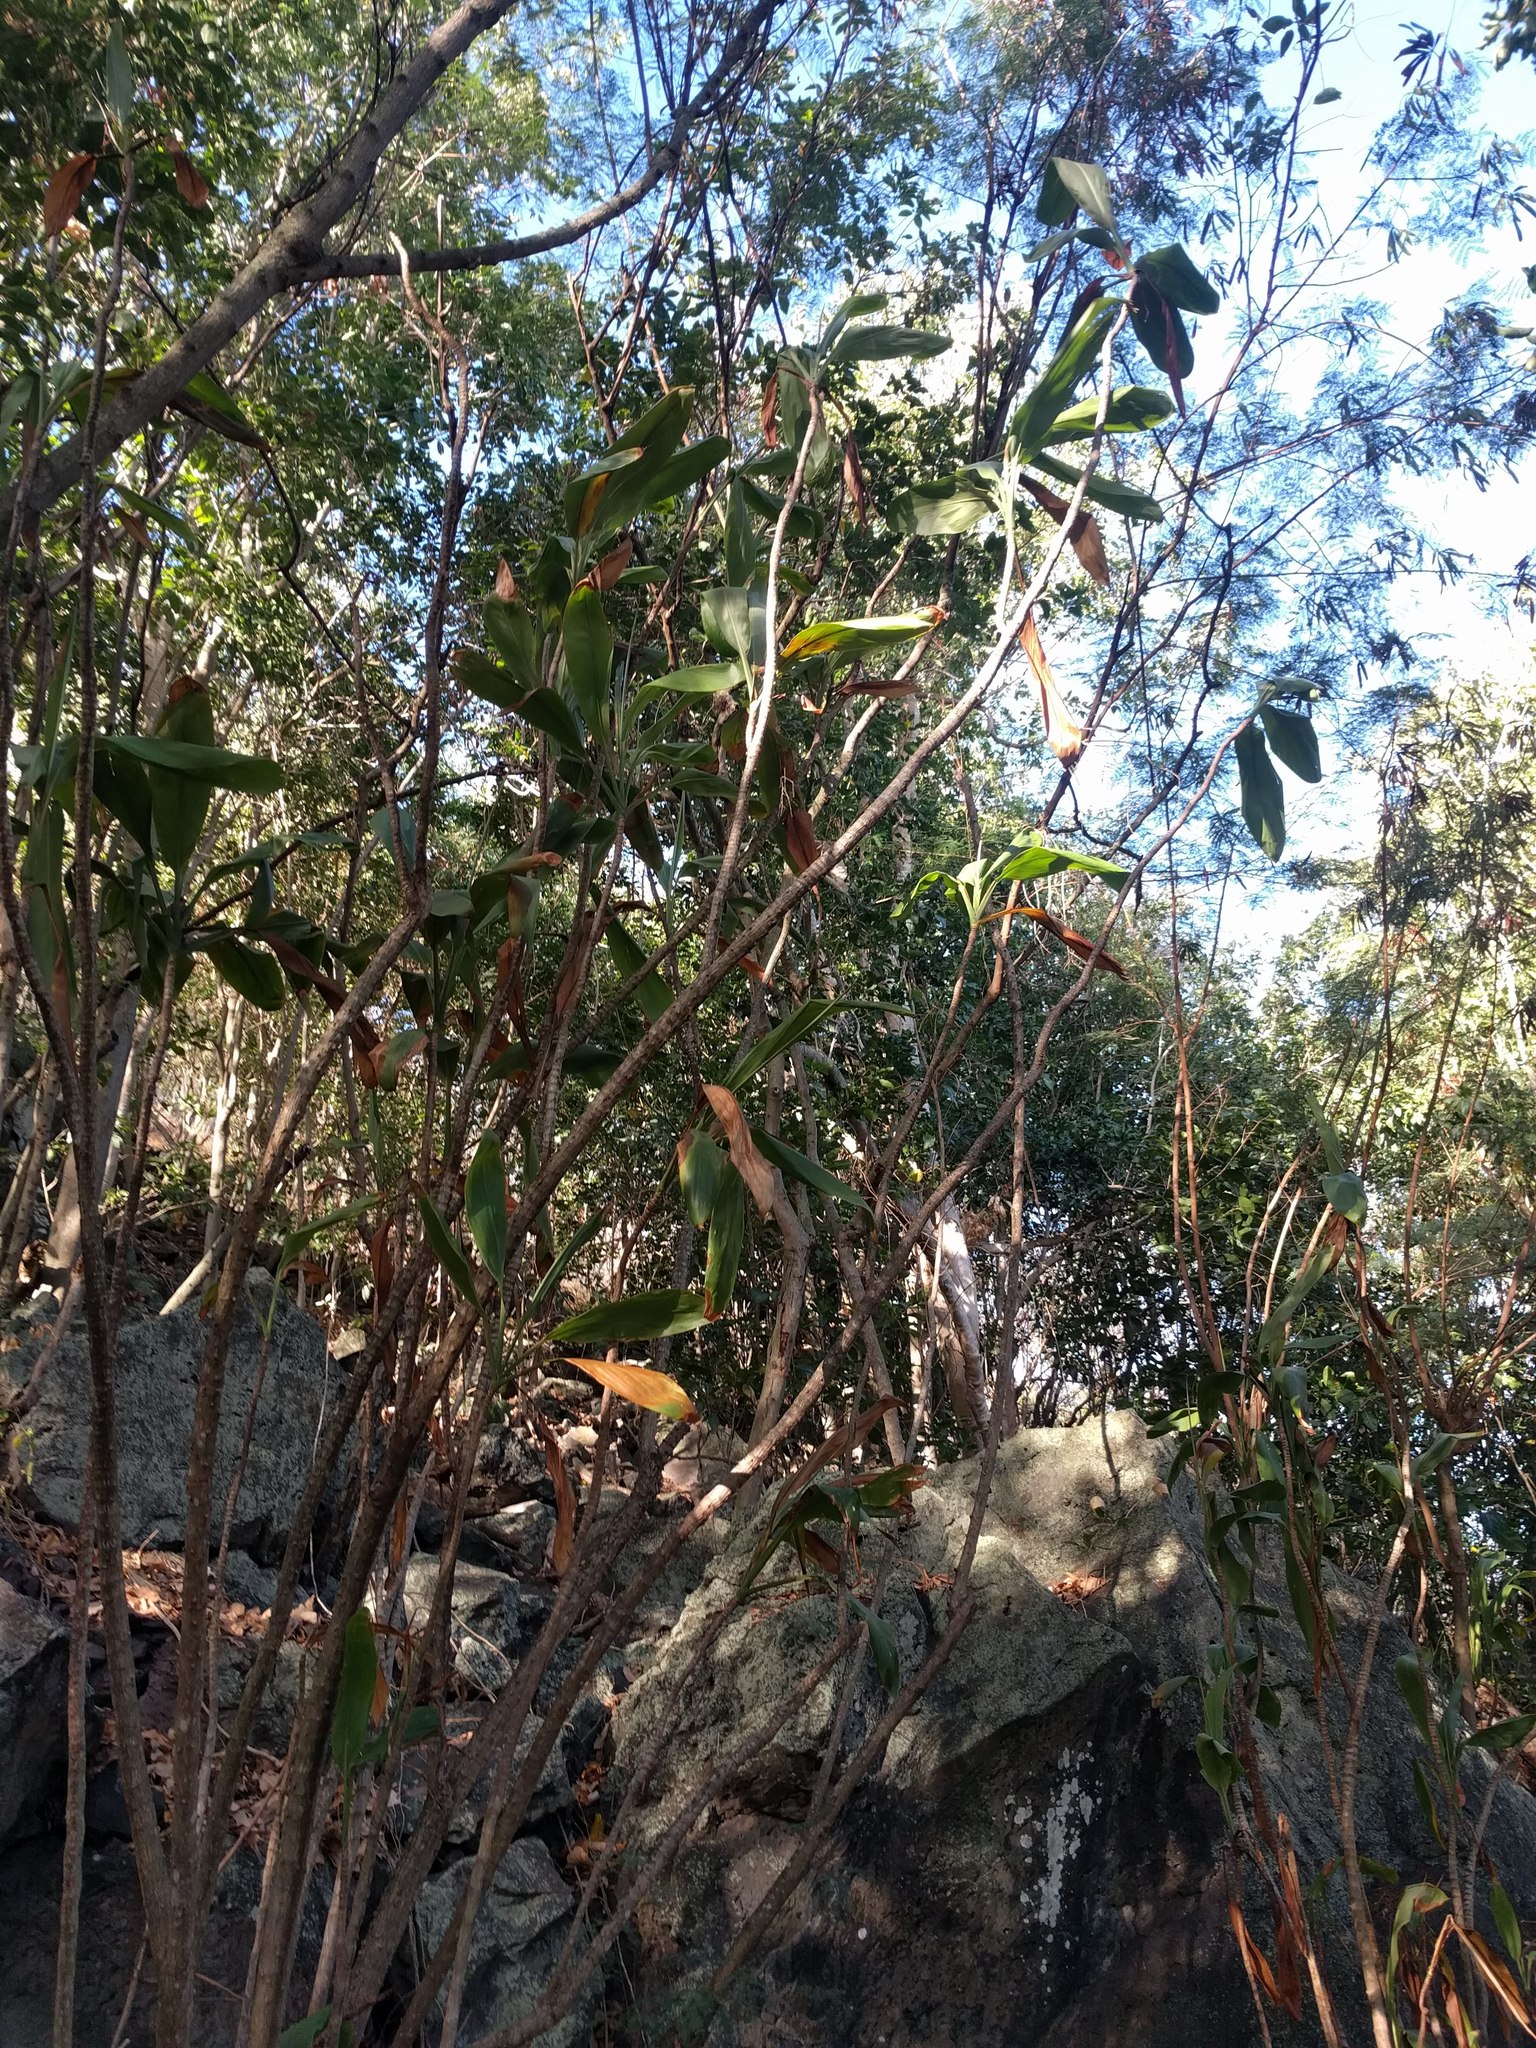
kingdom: Plantae
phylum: Tracheophyta
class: Liliopsida
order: Asparagales
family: Asparagaceae
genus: Cordyline
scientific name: Cordyline fruticosa
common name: Good-luck-plant
